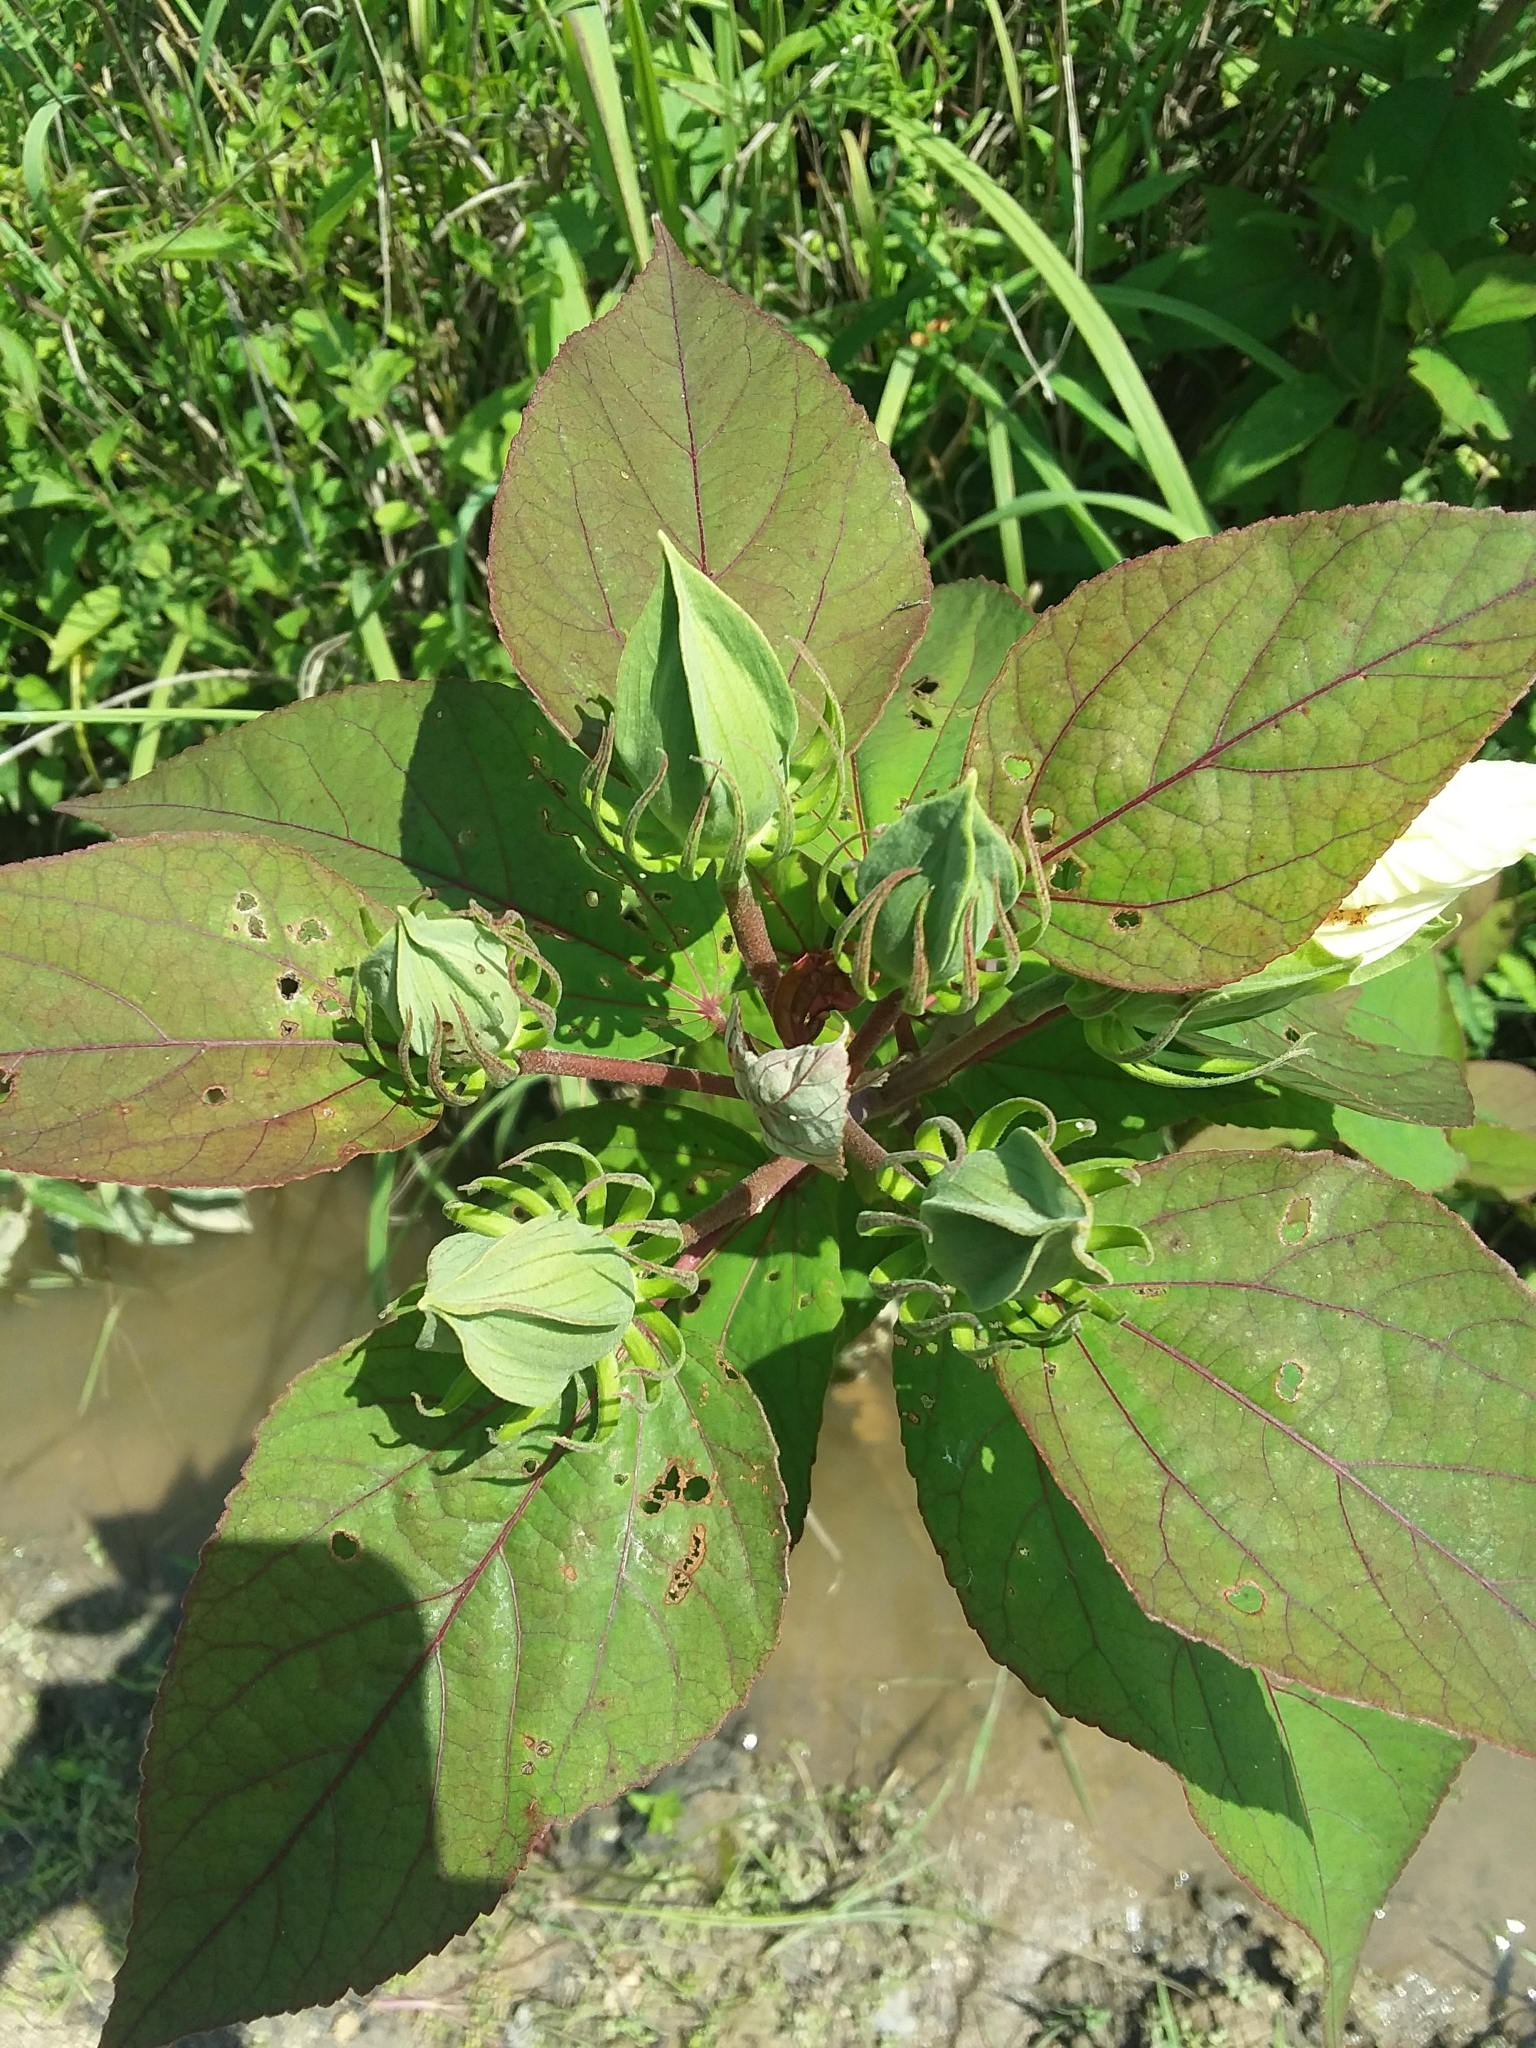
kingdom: Plantae
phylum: Tracheophyta
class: Magnoliopsida
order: Malvales
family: Malvaceae
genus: Hibiscus
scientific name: Hibiscus moscheutos
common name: Common rose-mallow
